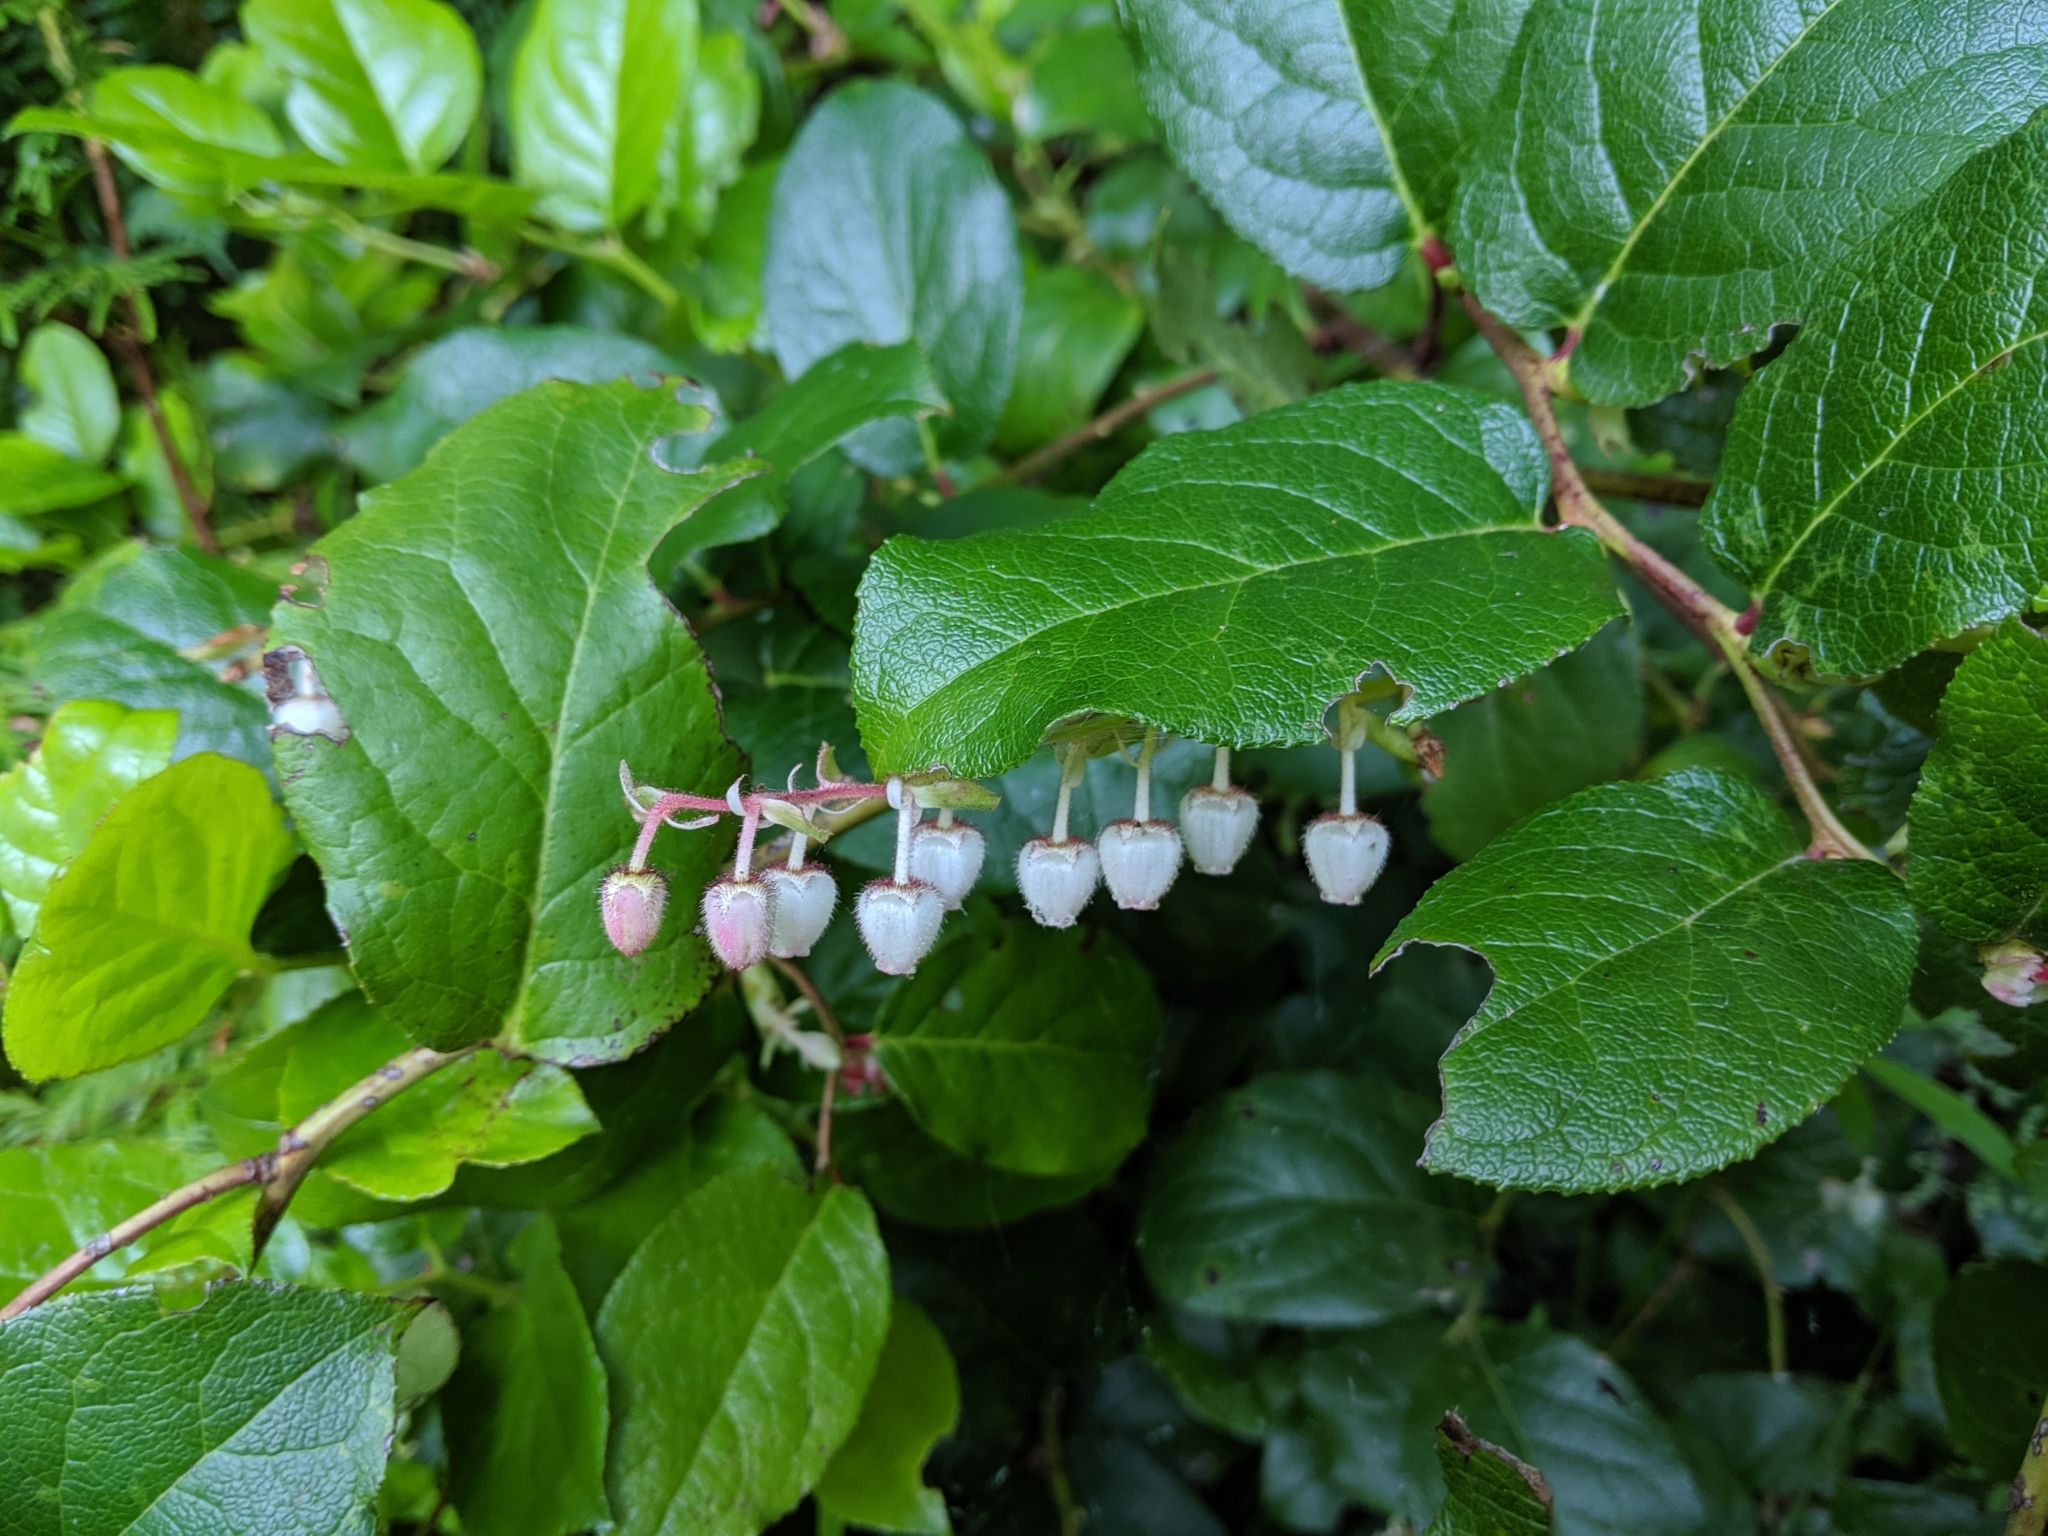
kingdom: Plantae
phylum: Tracheophyta
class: Magnoliopsida
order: Ericales
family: Ericaceae
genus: Gaultheria
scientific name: Gaultheria shallon
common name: Shallon
